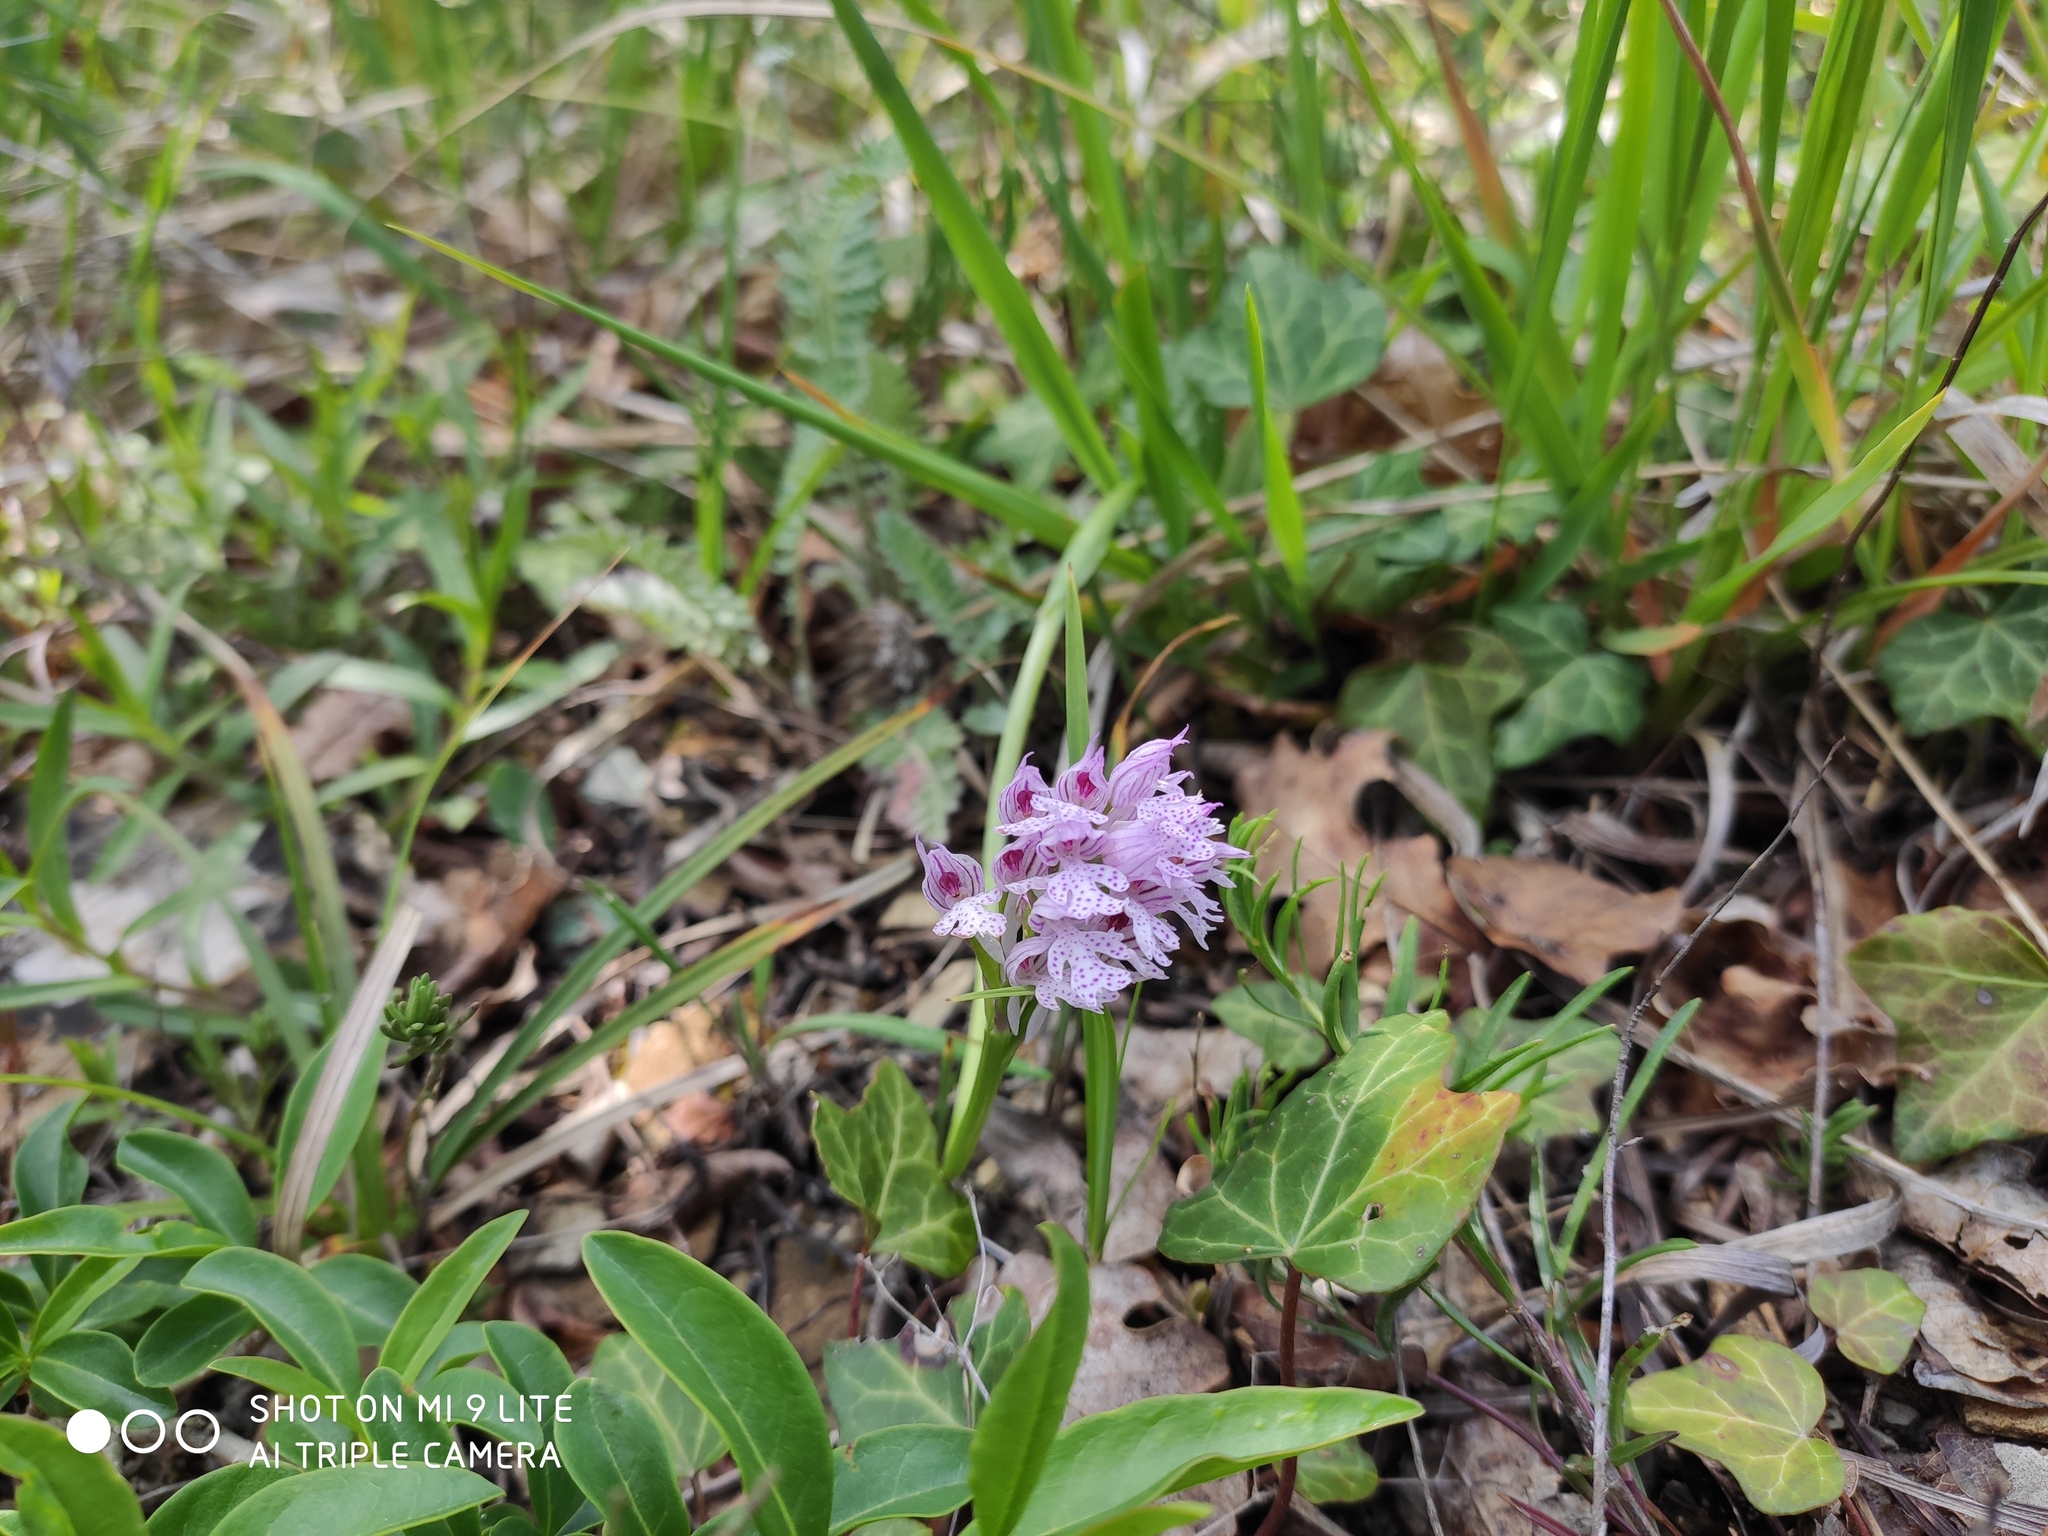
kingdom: Plantae
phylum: Tracheophyta
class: Liliopsida
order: Asparagales
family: Orchidaceae
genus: Neotinea
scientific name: Neotinea tridentata
